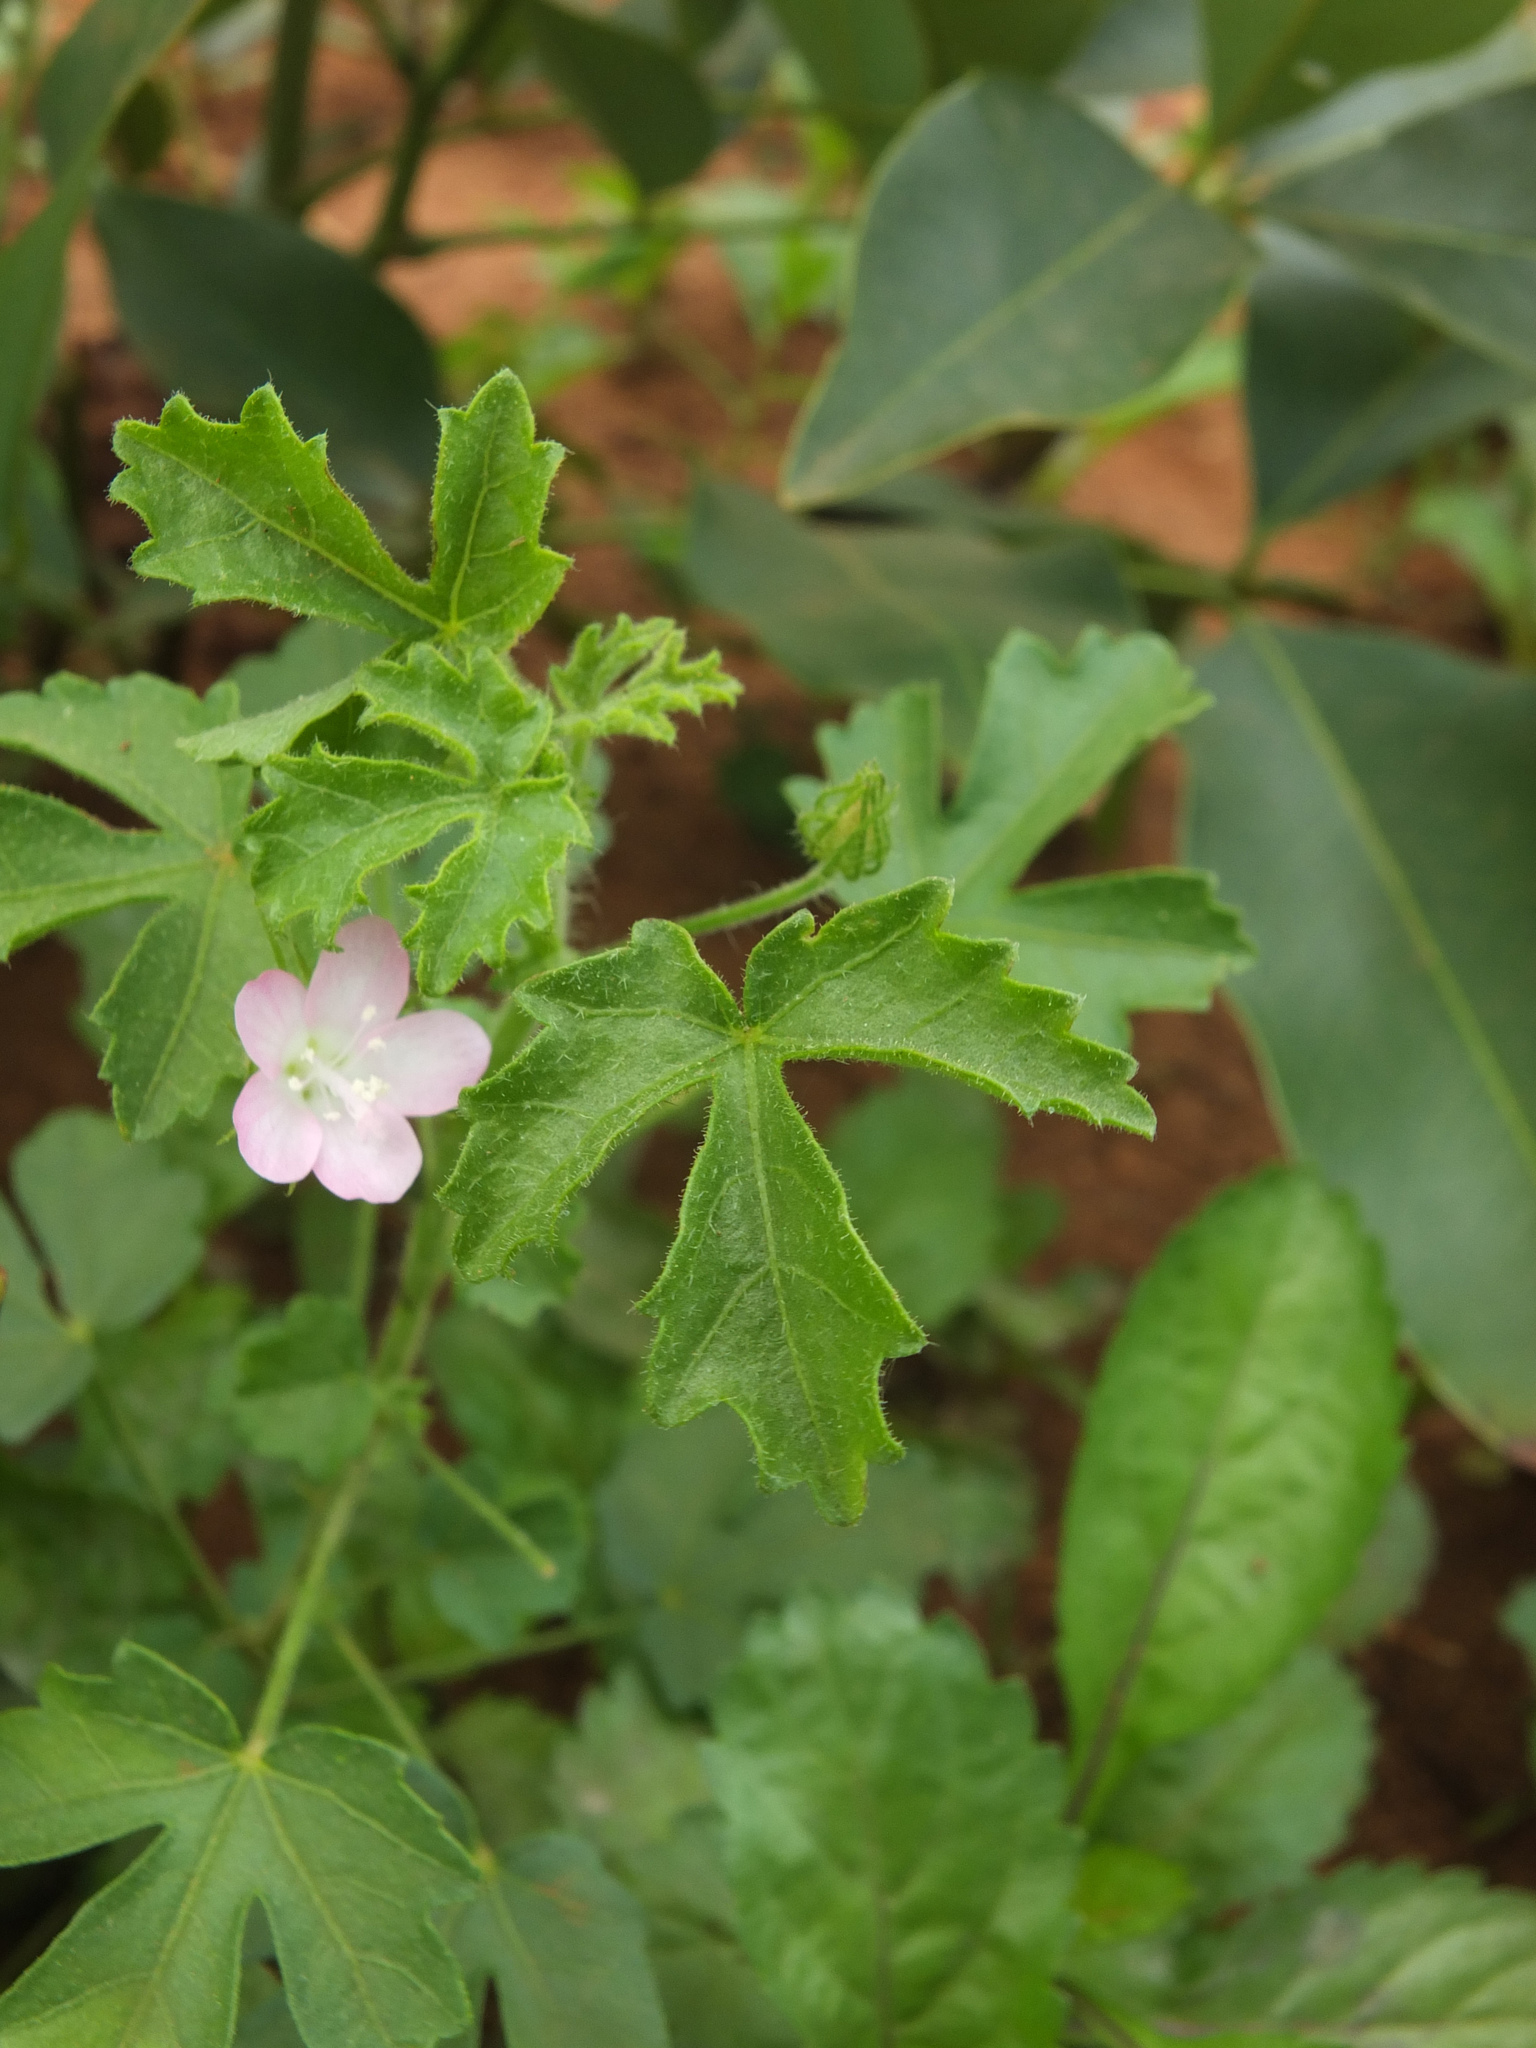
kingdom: Plantae
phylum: Tracheophyta
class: Magnoliopsida
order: Malvales
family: Malvaceae
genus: Pavonia
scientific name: Pavonia zeylanica
